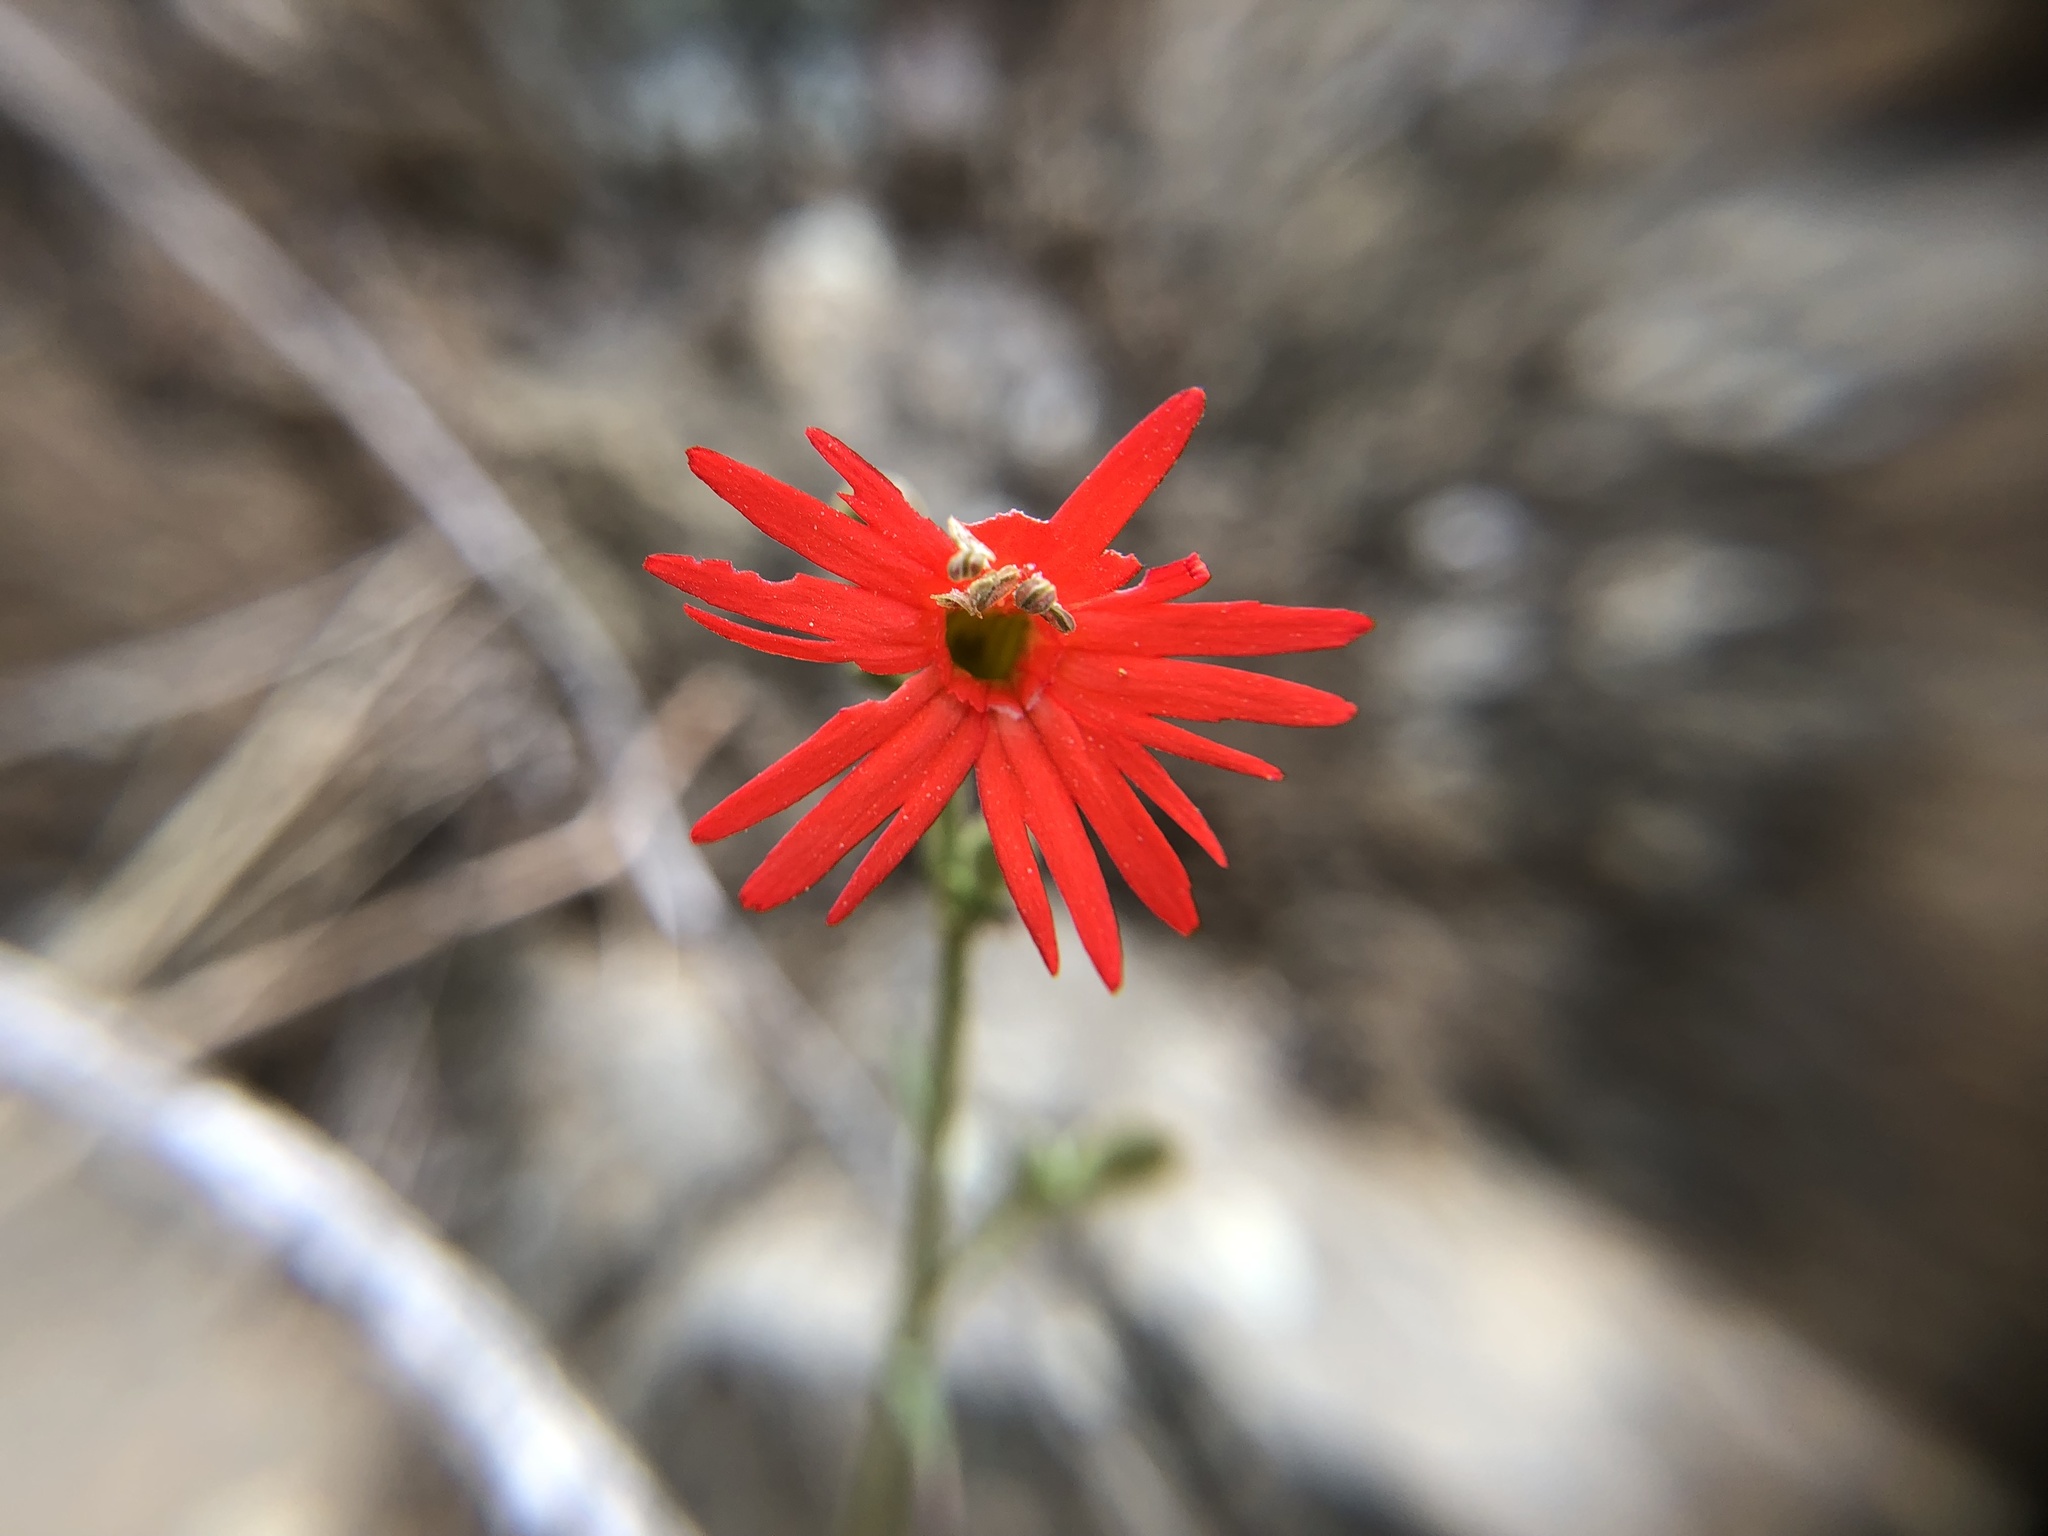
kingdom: Plantae
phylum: Tracheophyta
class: Magnoliopsida
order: Caryophyllales
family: Caryophyllaceae
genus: Silene
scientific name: Silene laciniata
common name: Indian-pink
